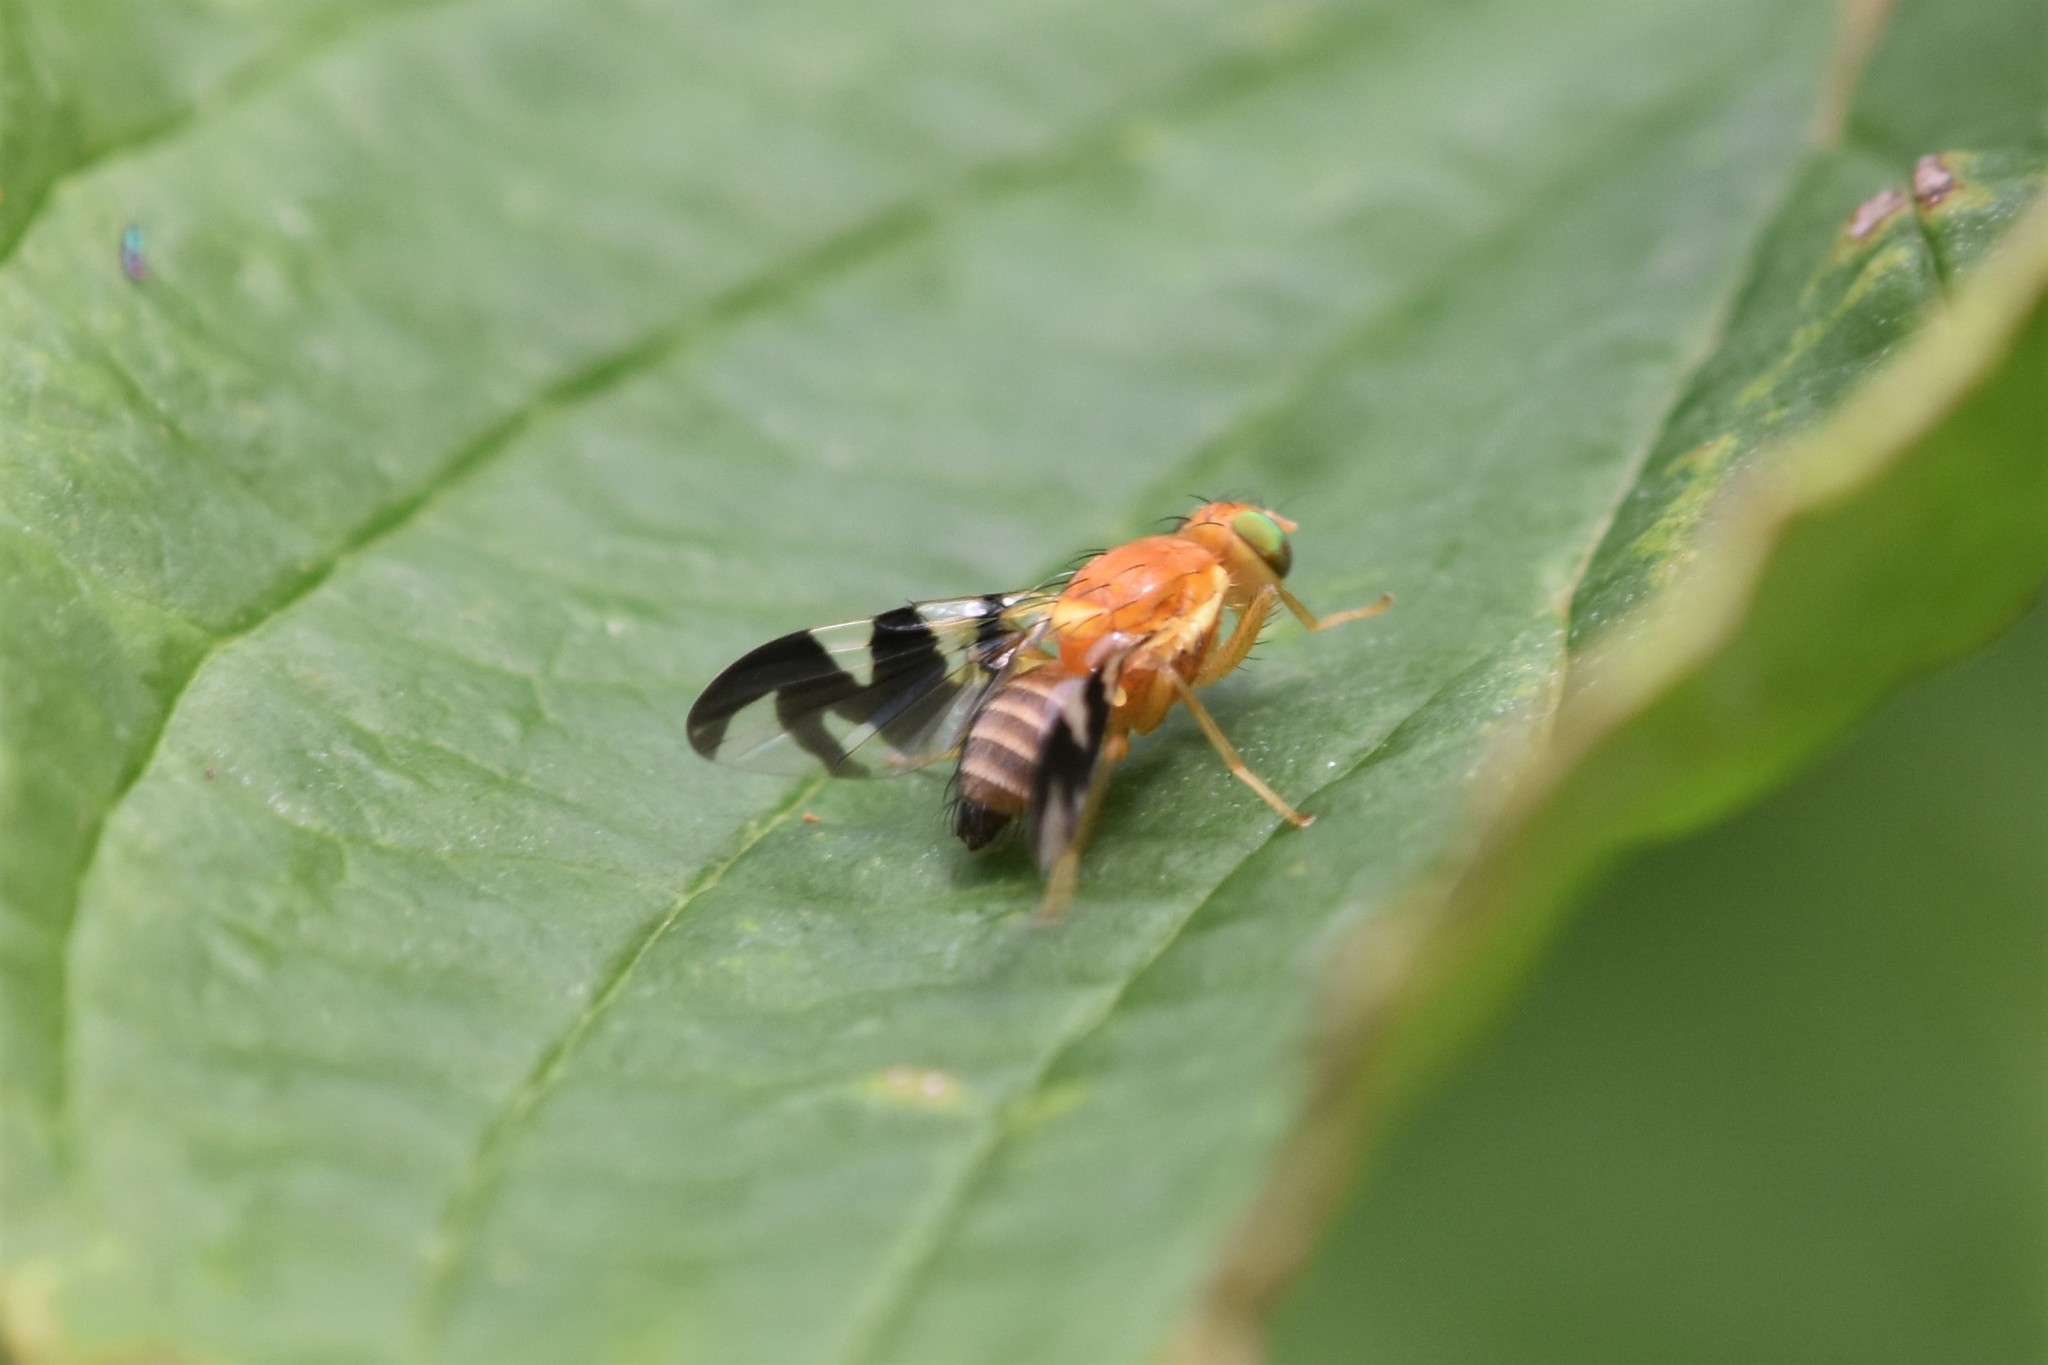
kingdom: Animalia
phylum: Arthropoda
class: Insecta
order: Diptera
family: Tephritidae
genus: Rhagoletis
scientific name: Rhagoletis suavis
